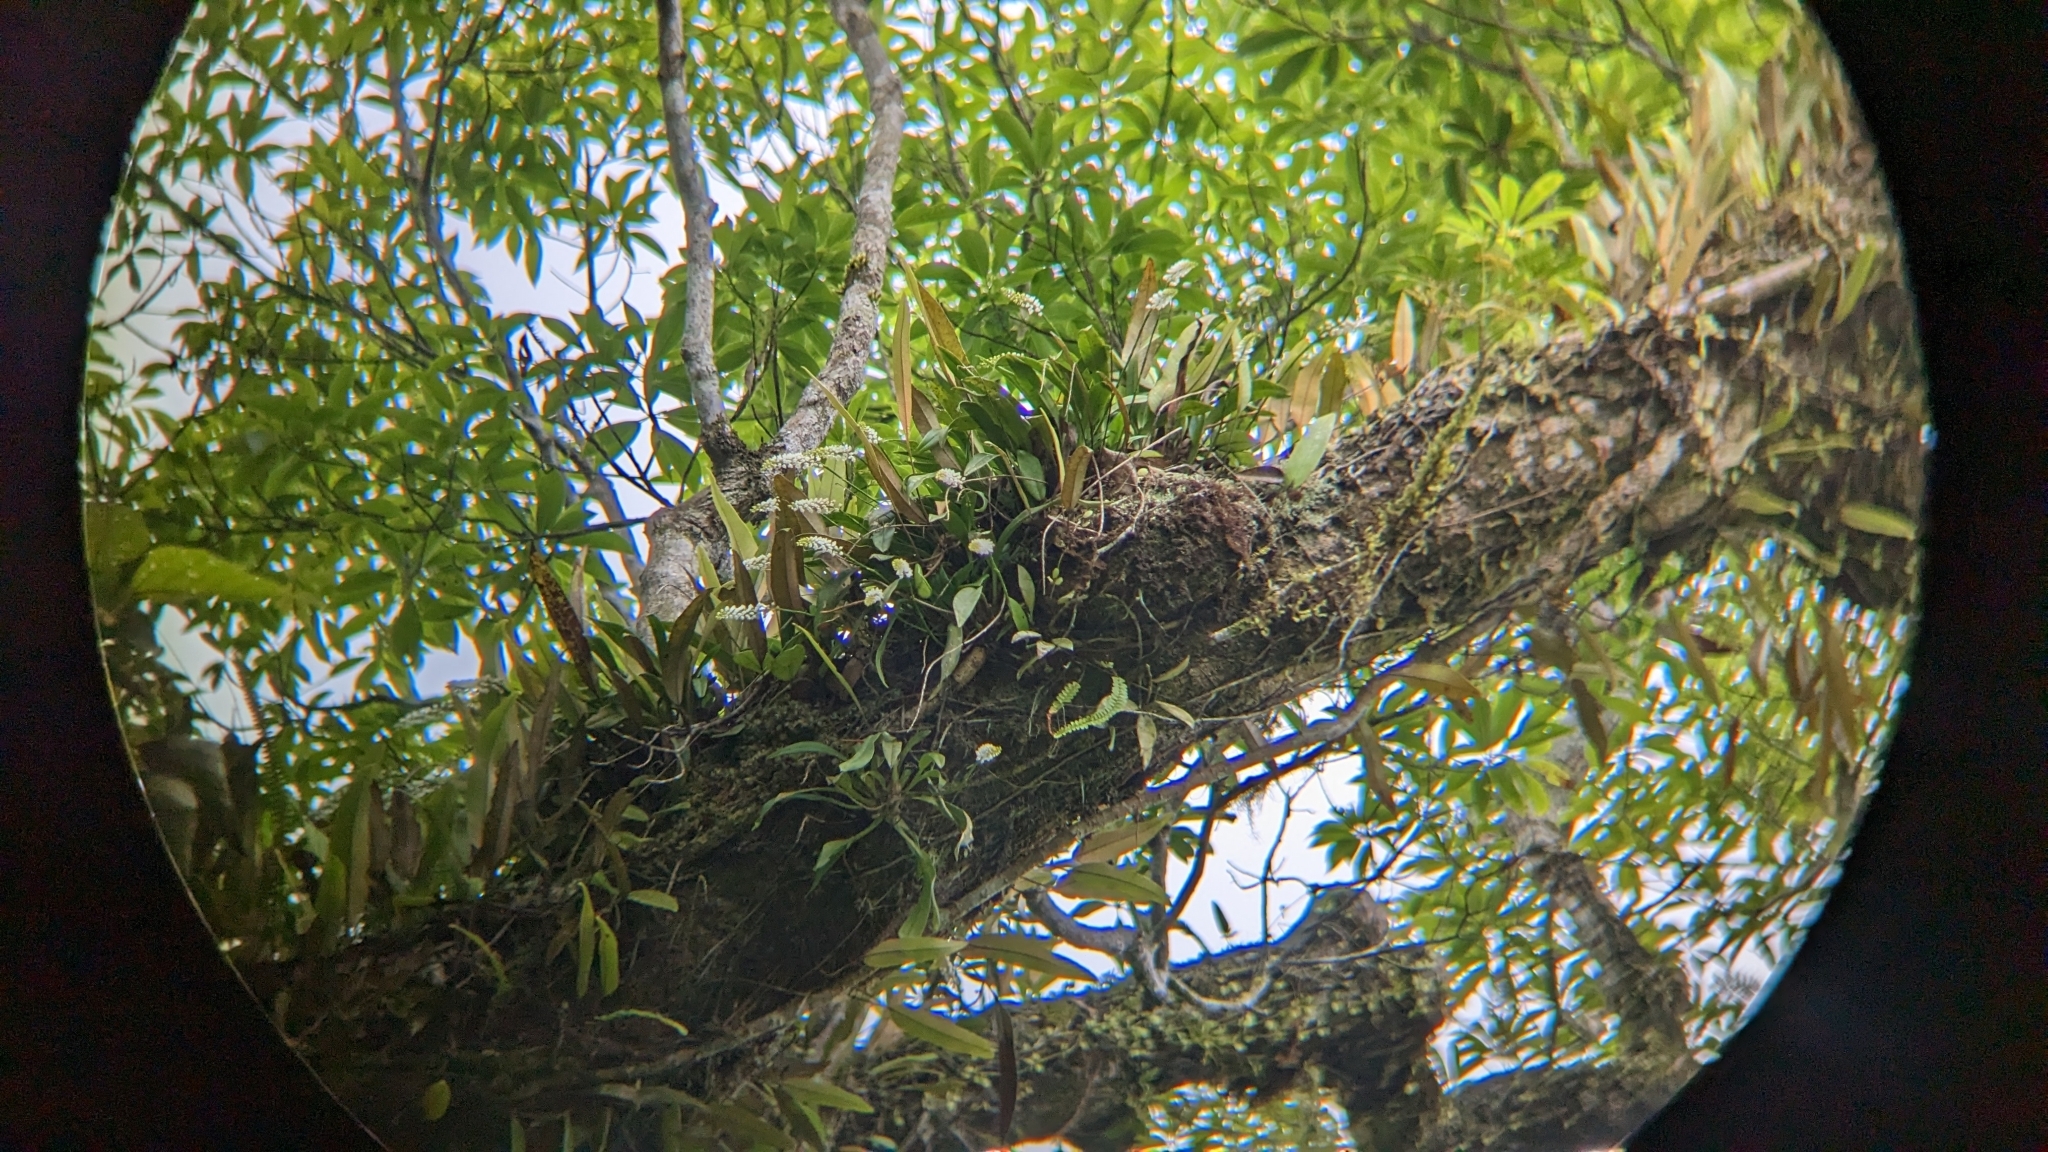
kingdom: Plantae
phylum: Tracheophyta
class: Liliopsida
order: Asparagales
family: Orchidaceae
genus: Phreatia
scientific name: Phreatia morii
